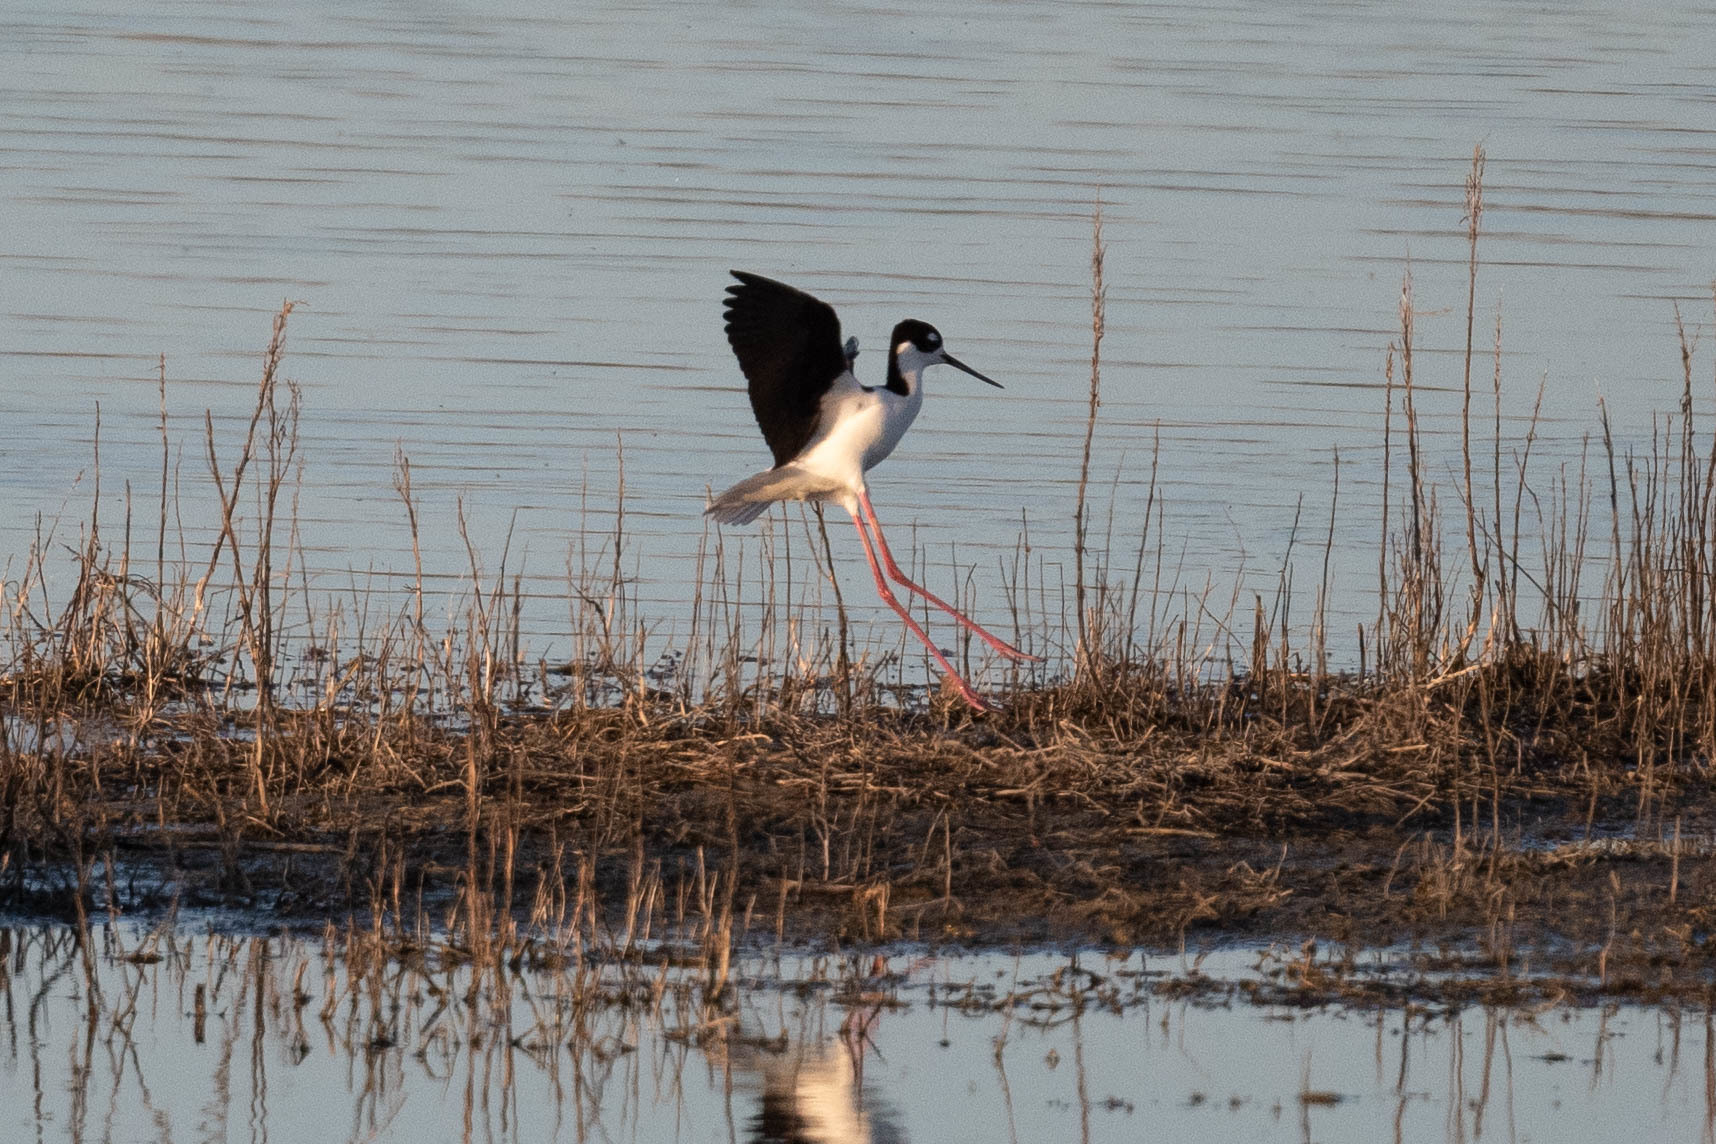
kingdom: Animalia
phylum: Chordata
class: Aves
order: Charadriiformes
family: Recurvirostridae
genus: Himantopus
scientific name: Himantopus mexicanus
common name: Black-necked stilt
